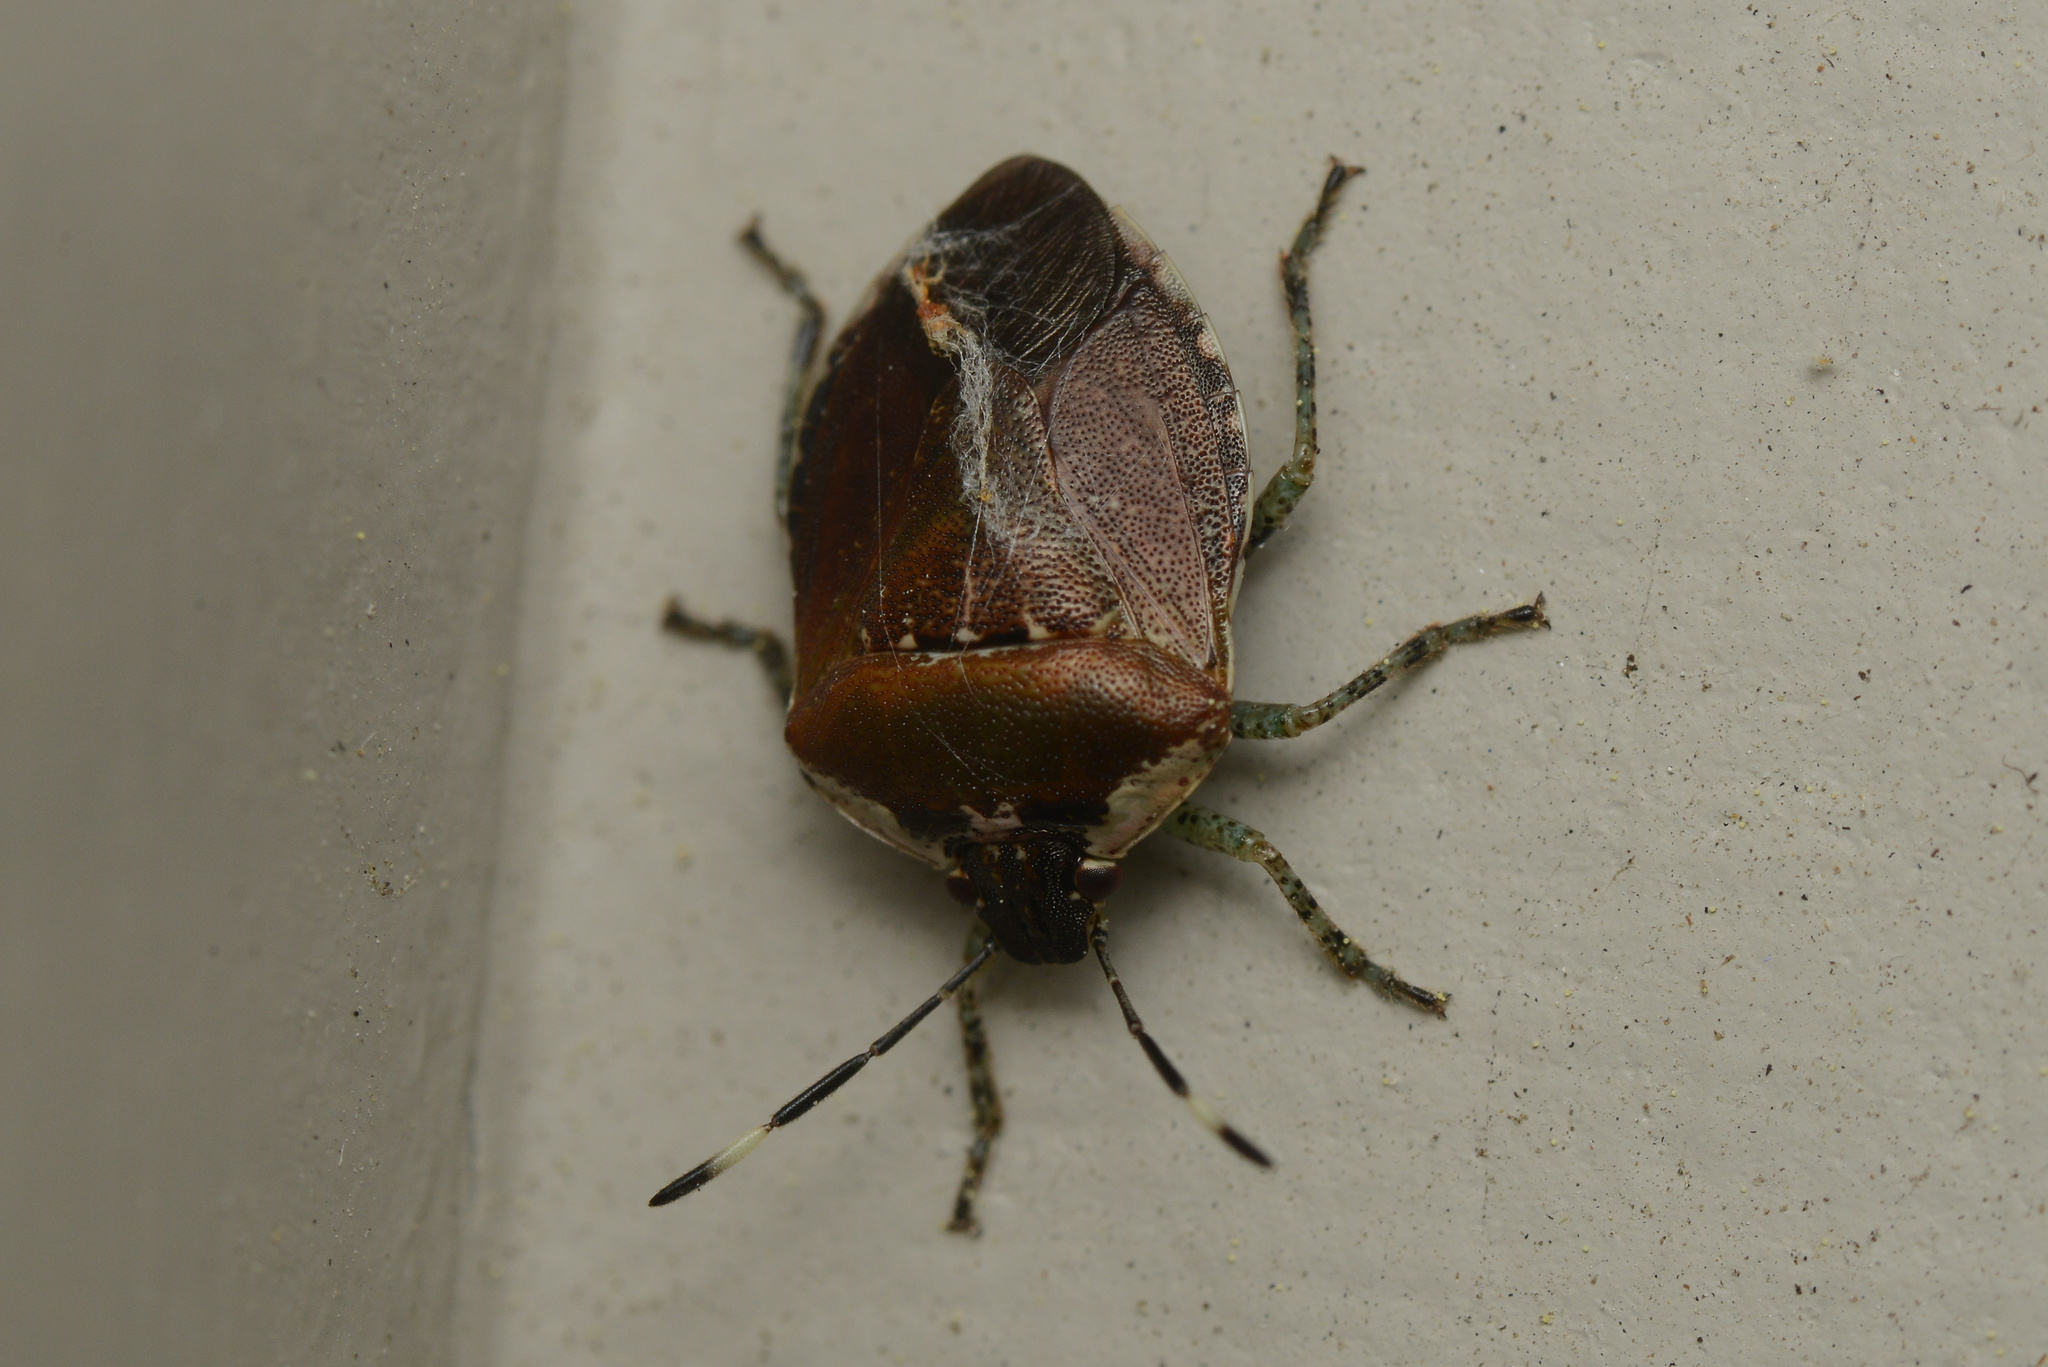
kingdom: Animalia
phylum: Arthropoda
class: Insecta
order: Hemiptera
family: Pentatomidae
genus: Monteithiella
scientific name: Monteithiella
